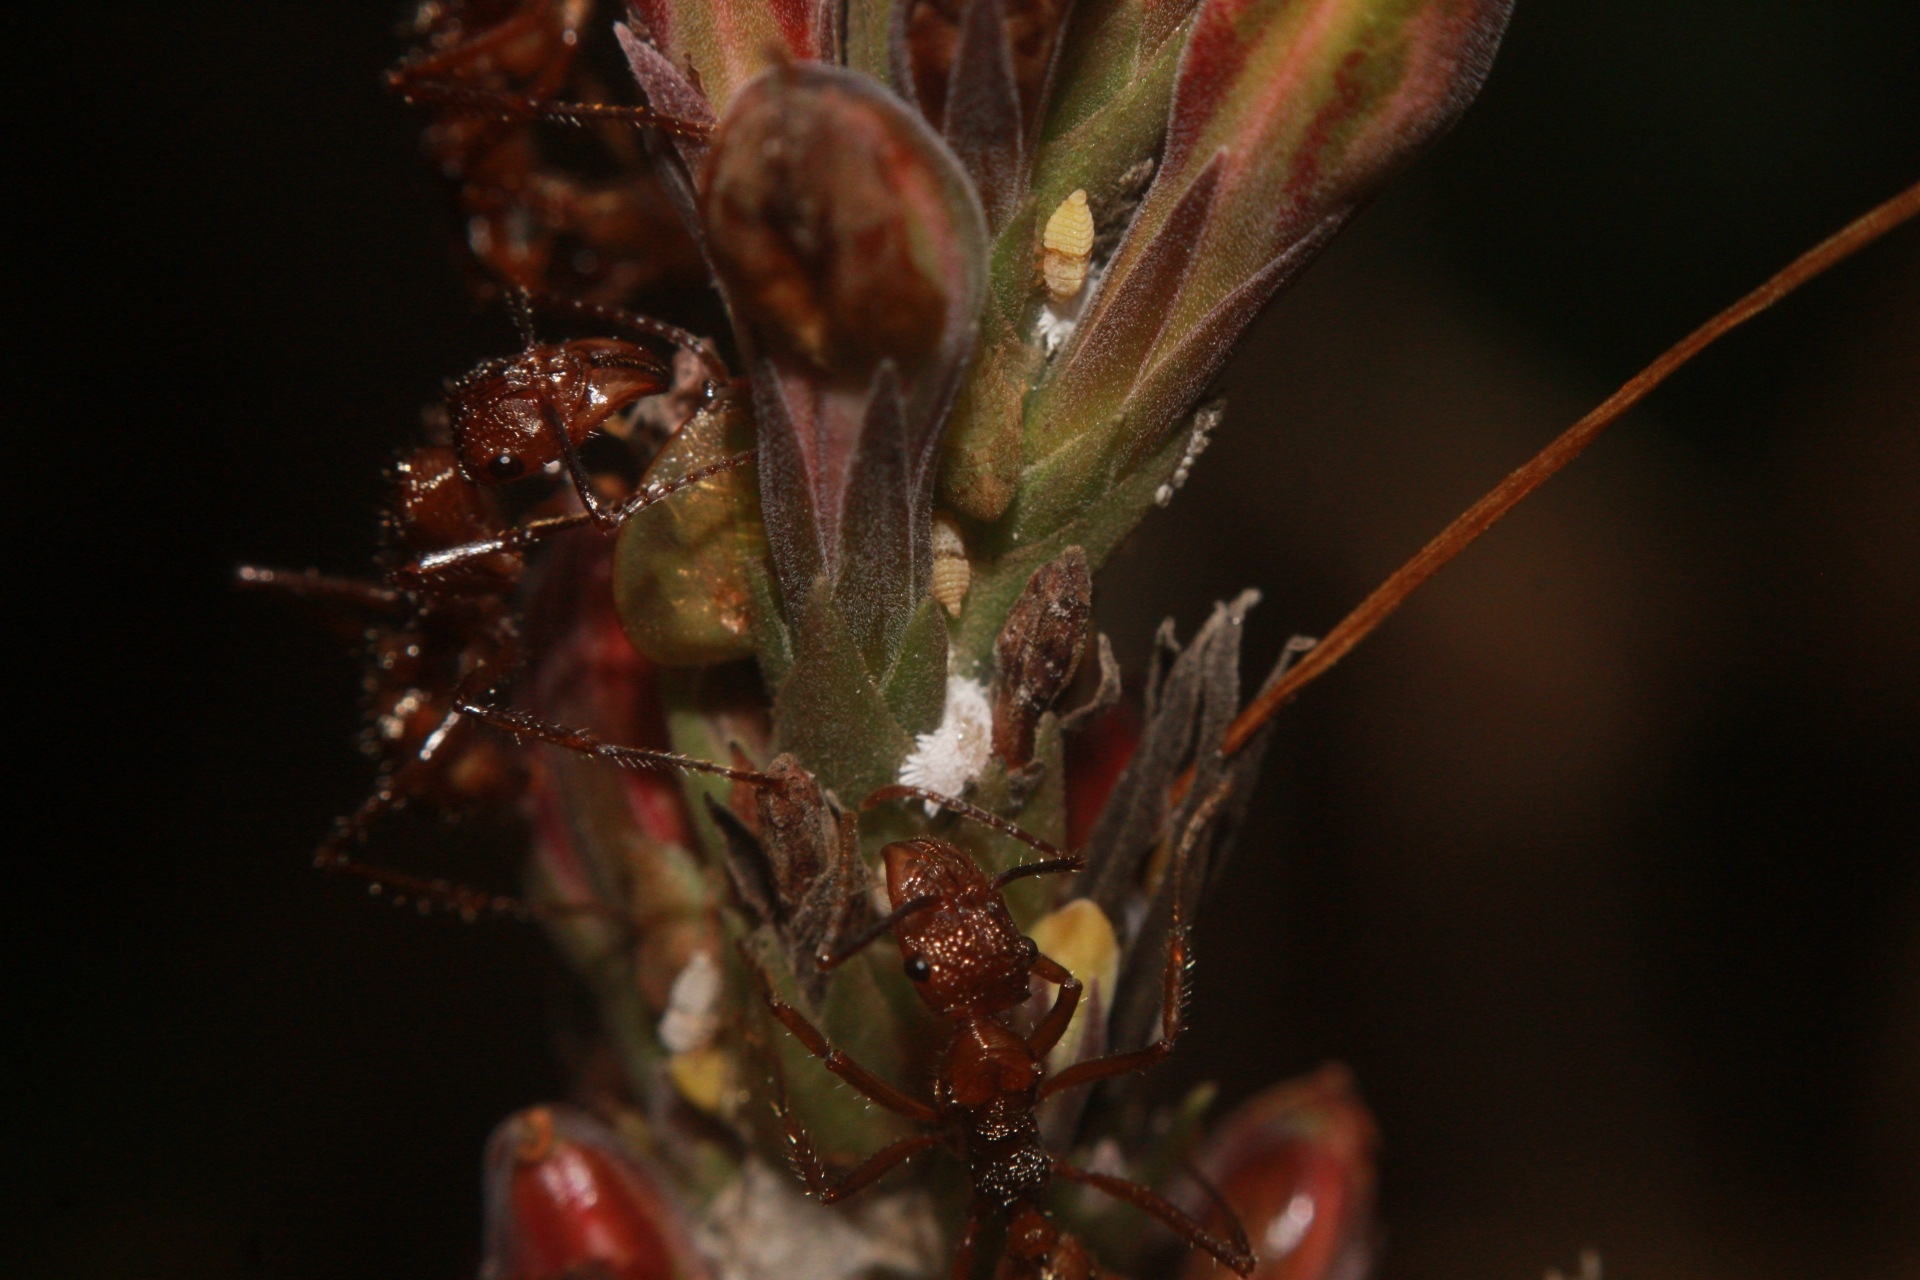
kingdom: Animalia
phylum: Arthropoda
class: Insecta
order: Hymenoptera
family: Formicidae
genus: Ectatomma
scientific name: Ectatomma tuberculatum
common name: Ant
